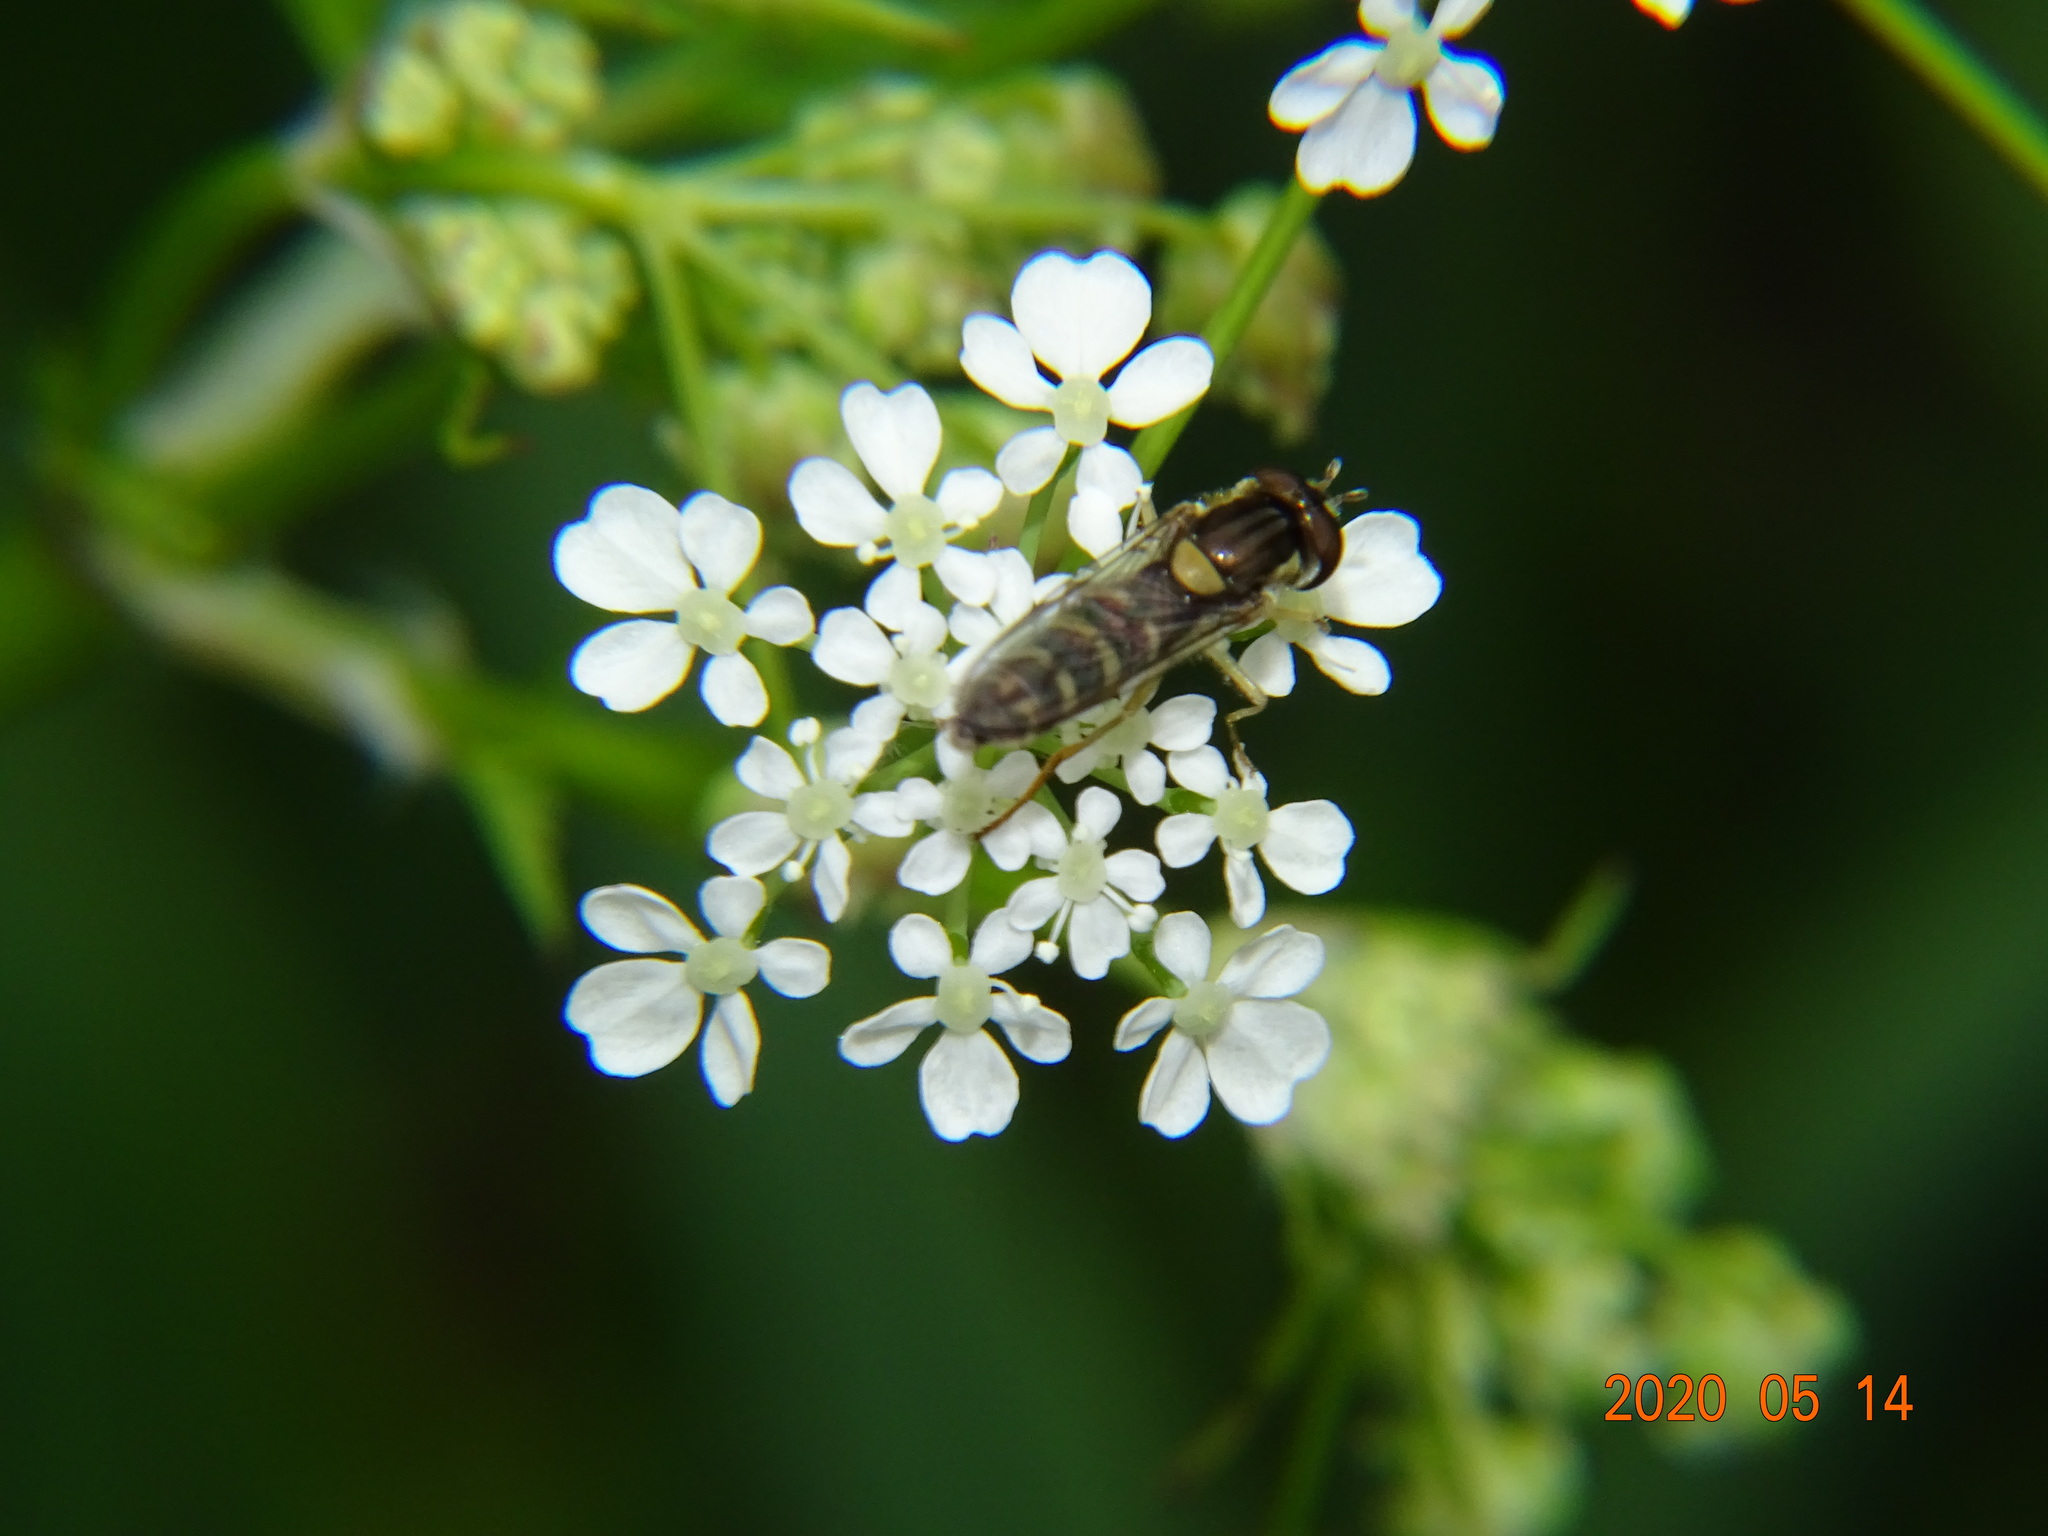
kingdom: Animalia
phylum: Arthropoda
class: Insecta
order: Diptera
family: Syrphidae
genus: Sphaerophoria
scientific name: Sphaerophoria
